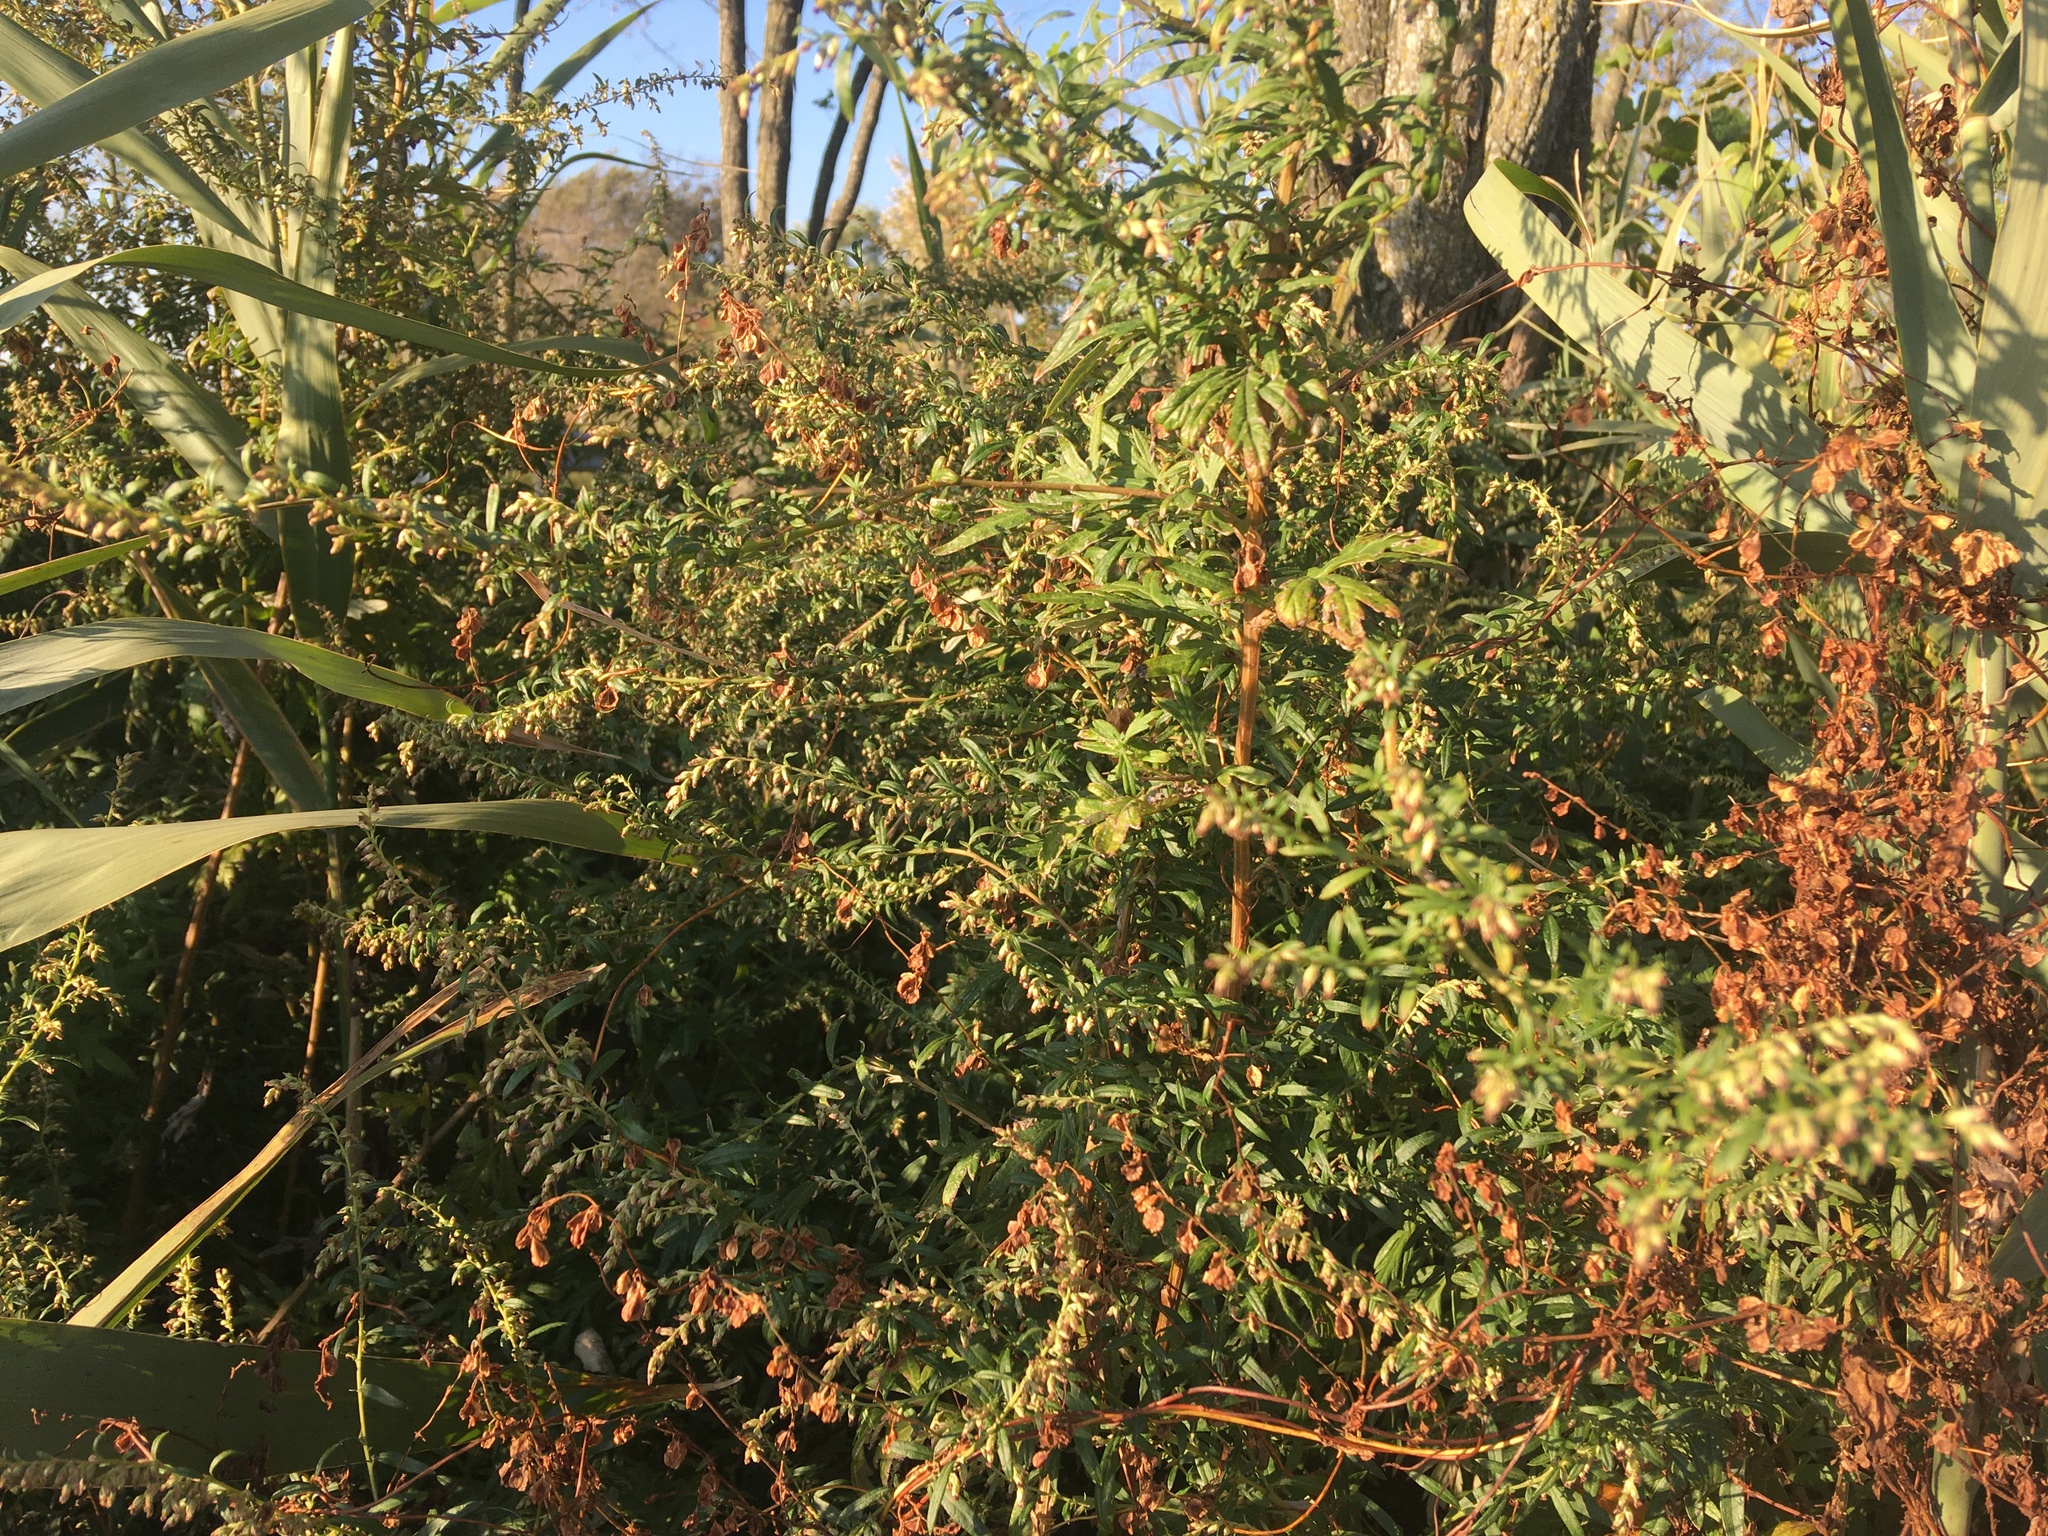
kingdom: Plantae
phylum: Tracheophyta
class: Magnoliopsida
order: Asterales
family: Asteraceae
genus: Artemisia
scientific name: Artemisia vulgaris
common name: Mugwort
